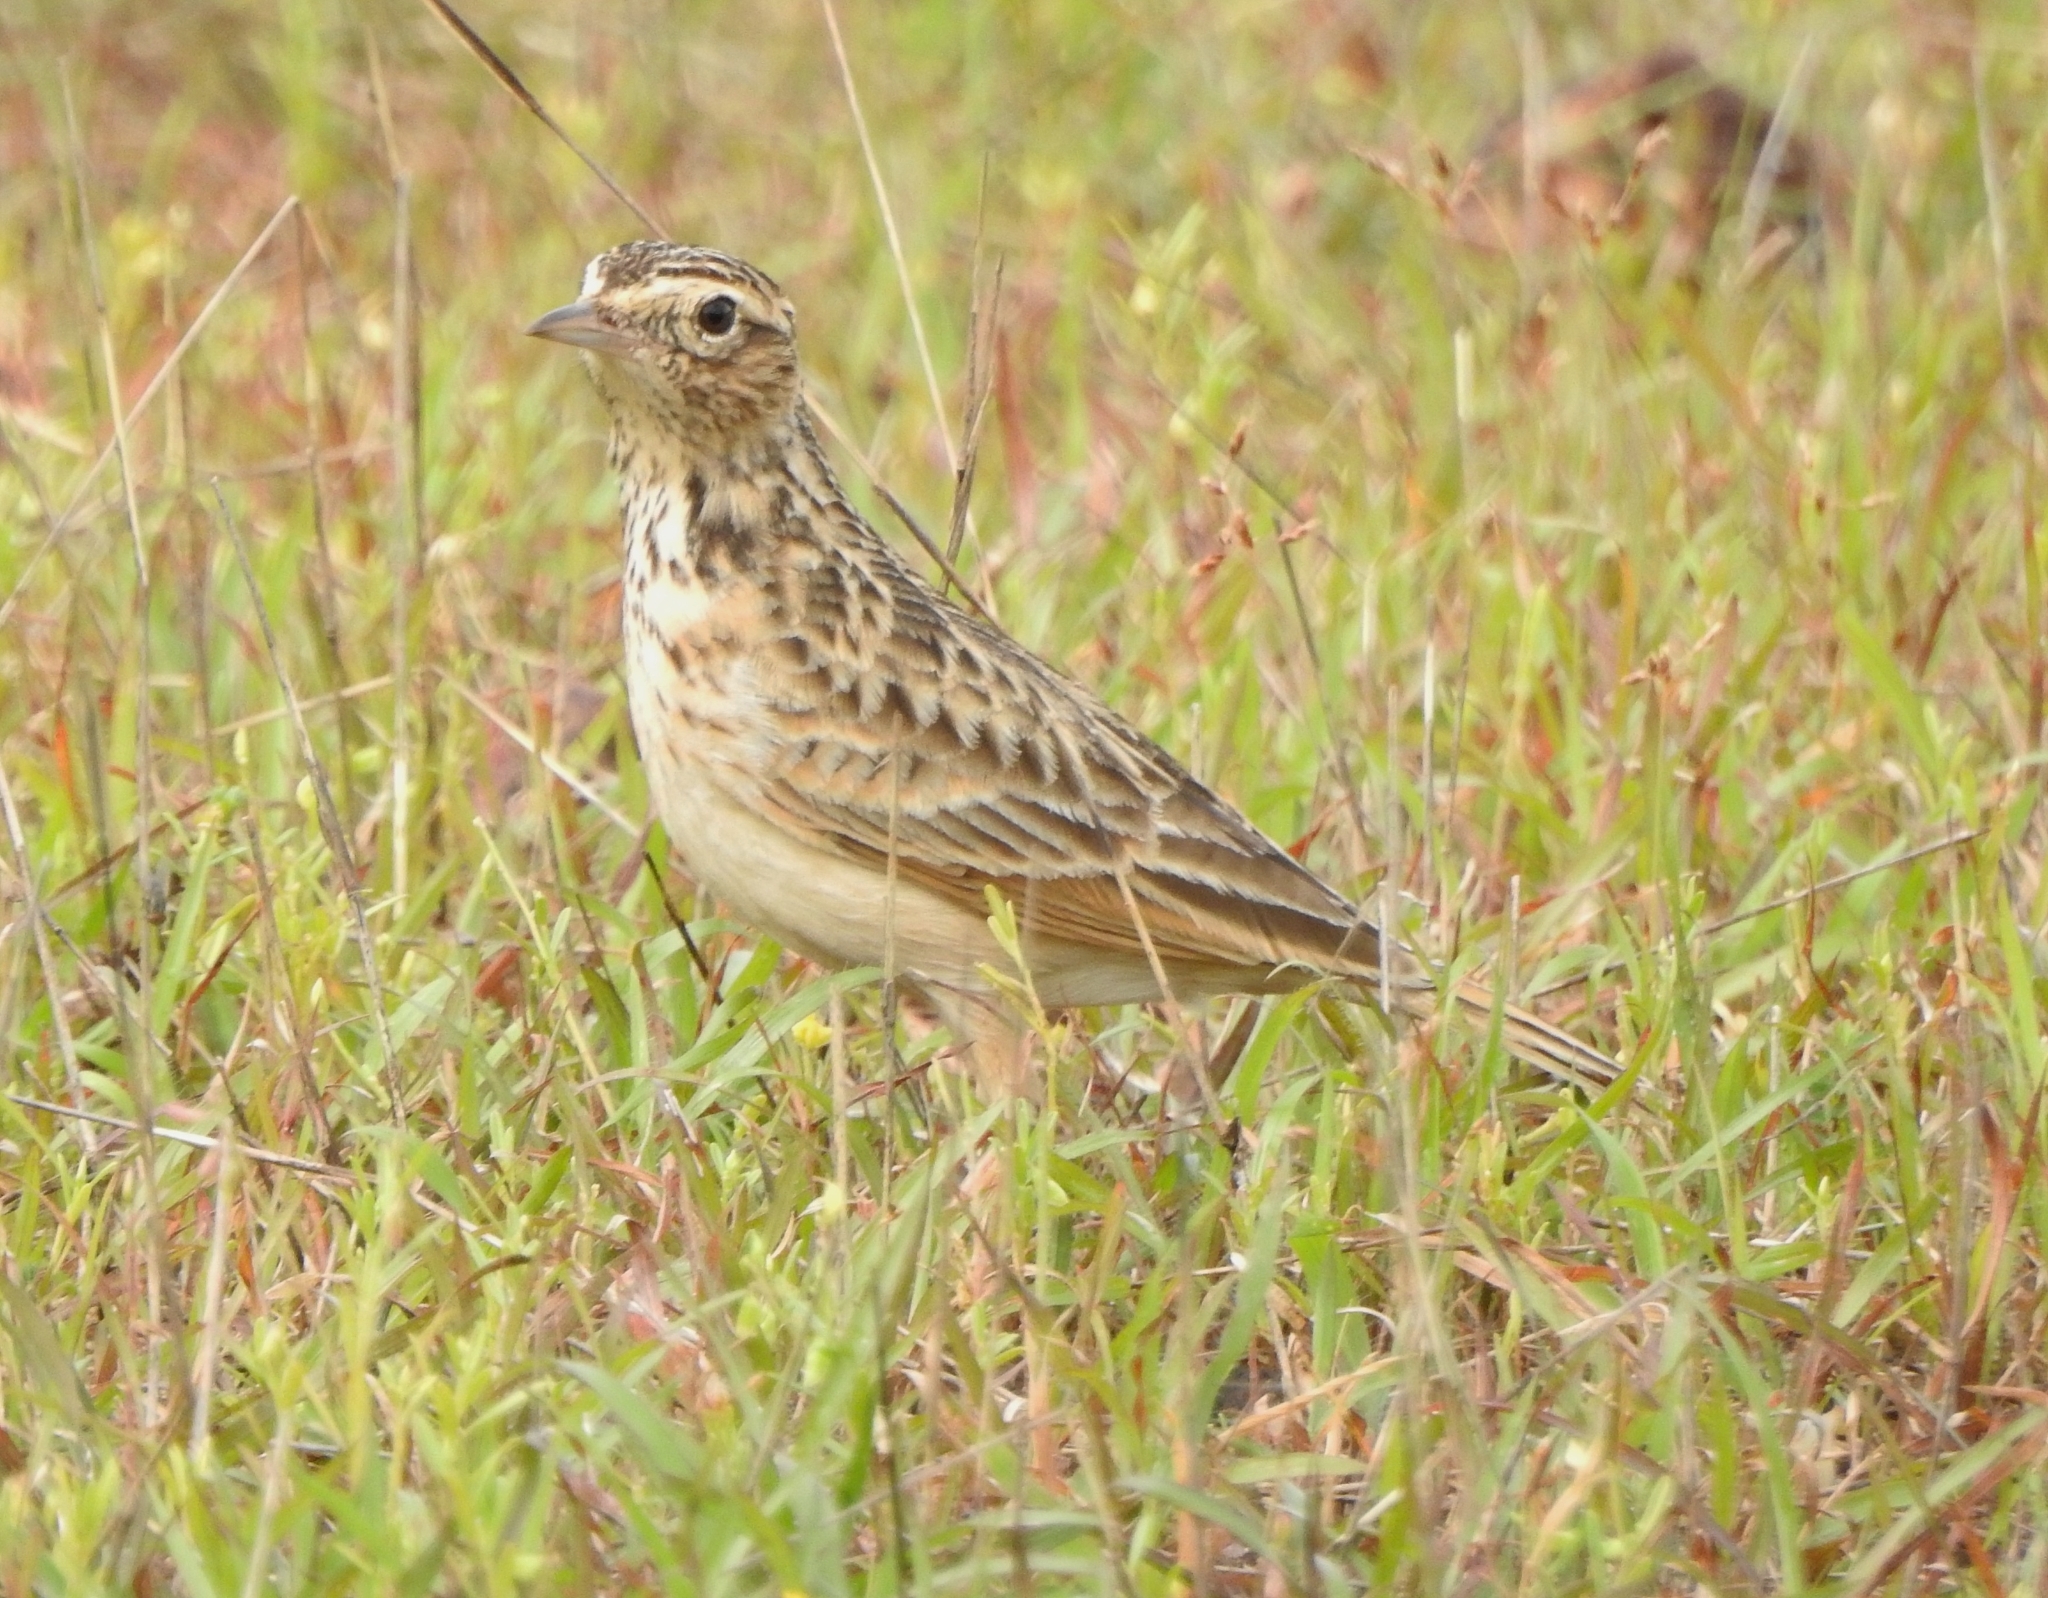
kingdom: Animalia
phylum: Chordata
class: Aves
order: Passeriformes
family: Alaudidae
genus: Alauda
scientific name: Alauda gulgula
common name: Oriental skylark
